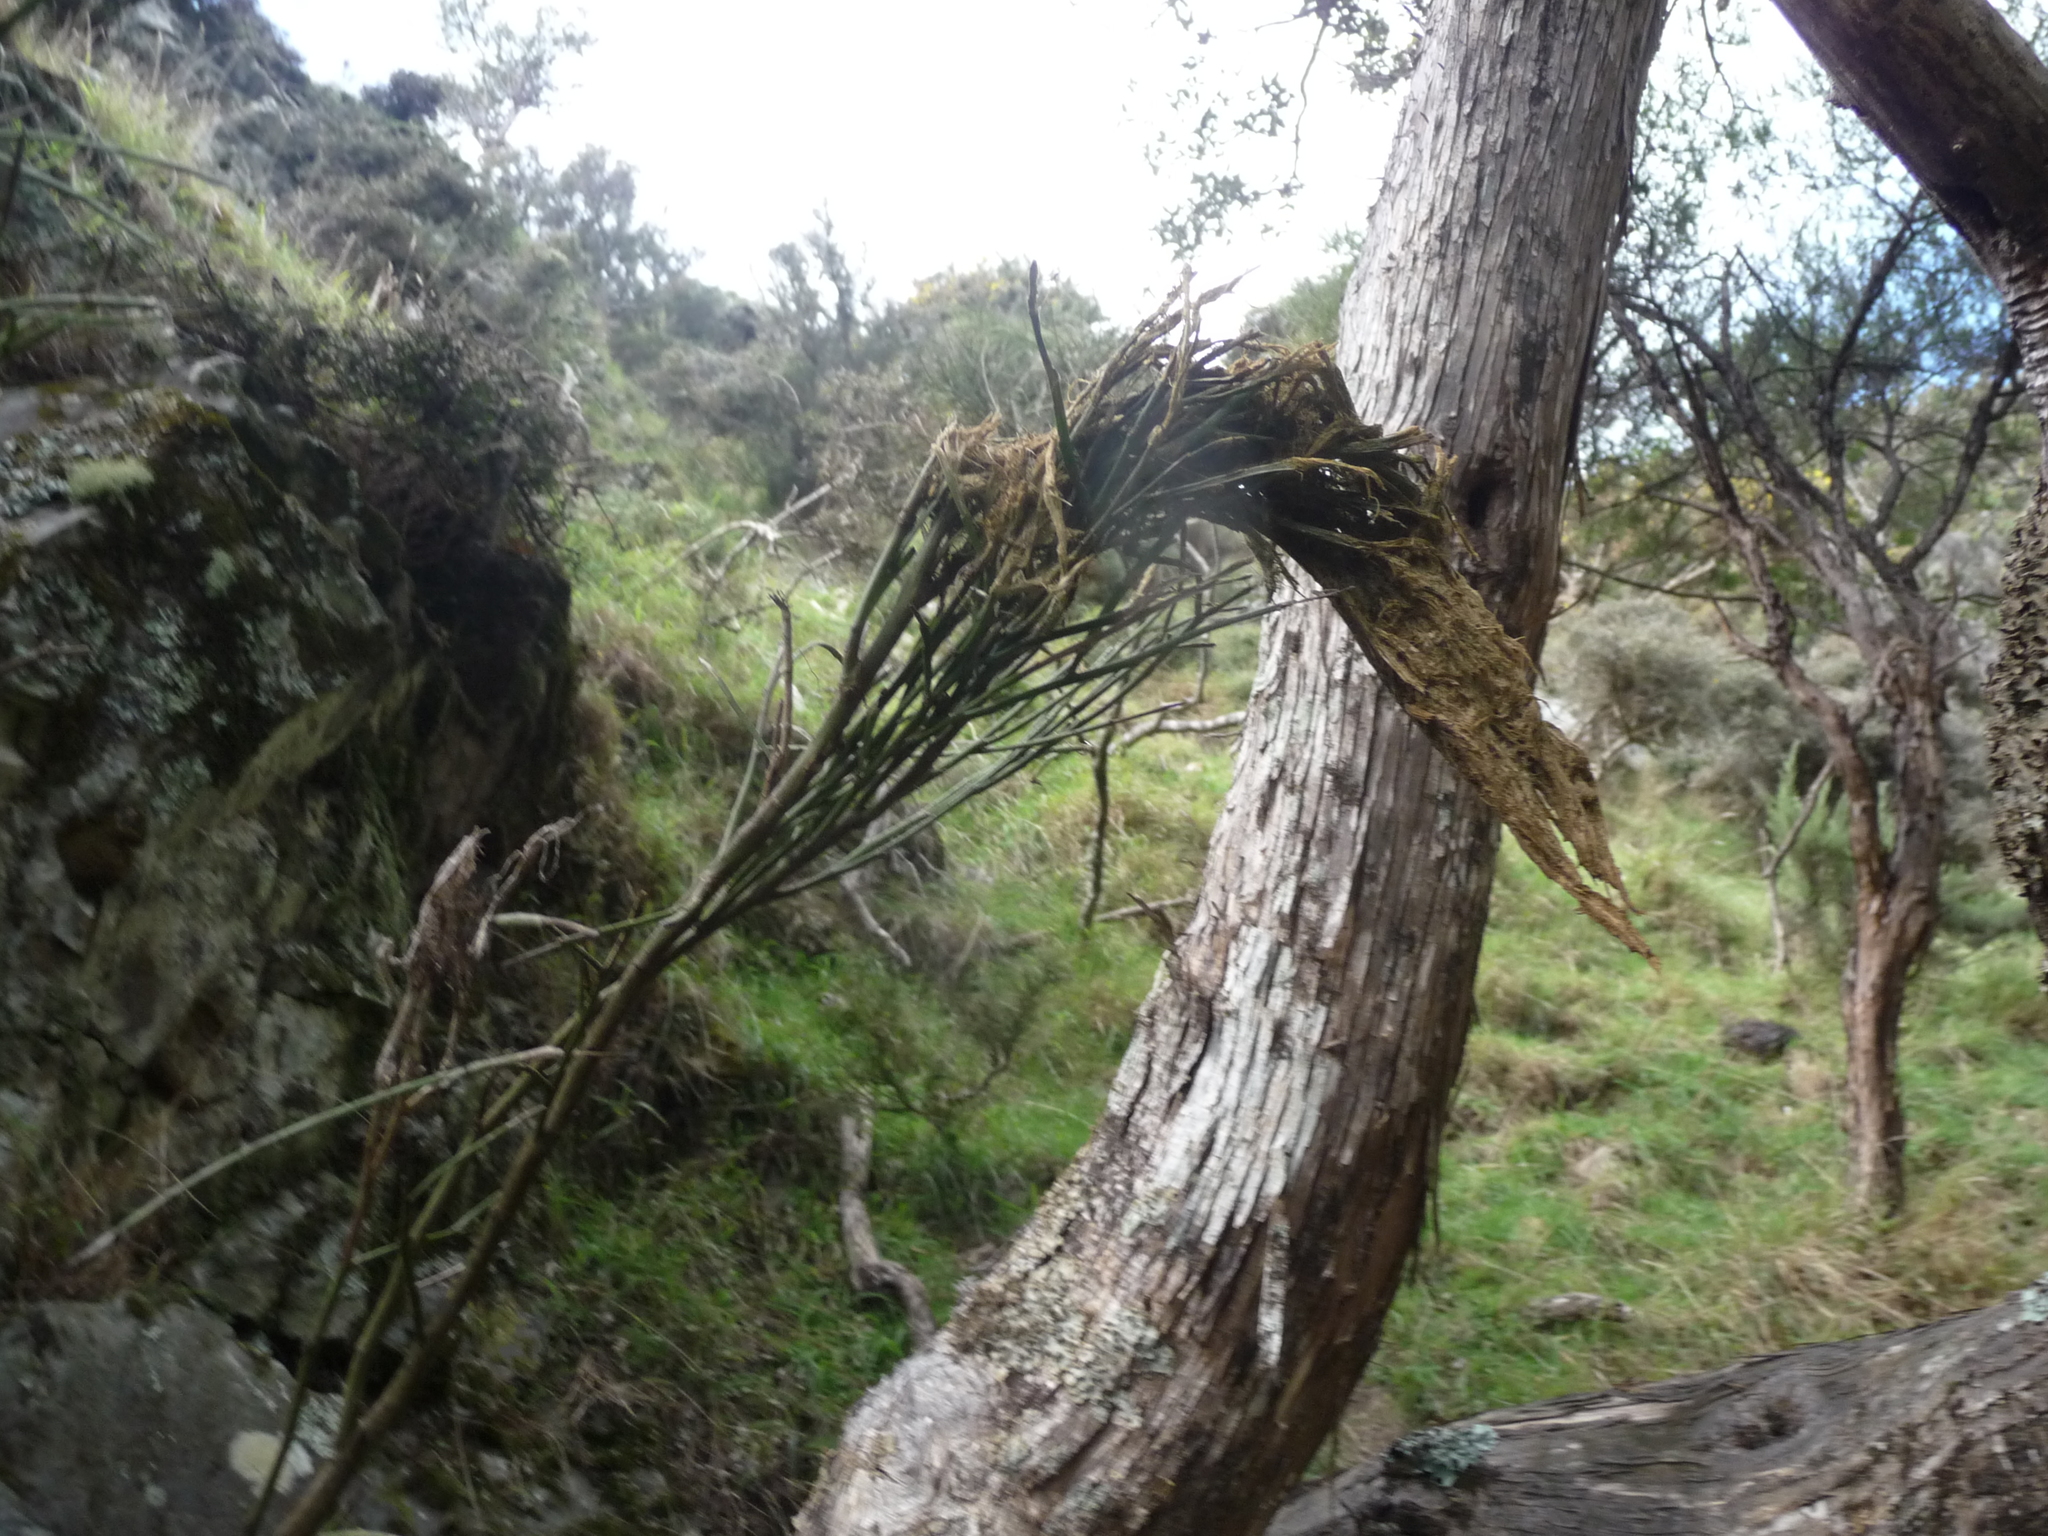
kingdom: Plantae
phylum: Tracheophyta
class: Magnoliopsida
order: Fabales
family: Fabaceae
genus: Carmichaelia
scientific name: Carmichaelia australis
